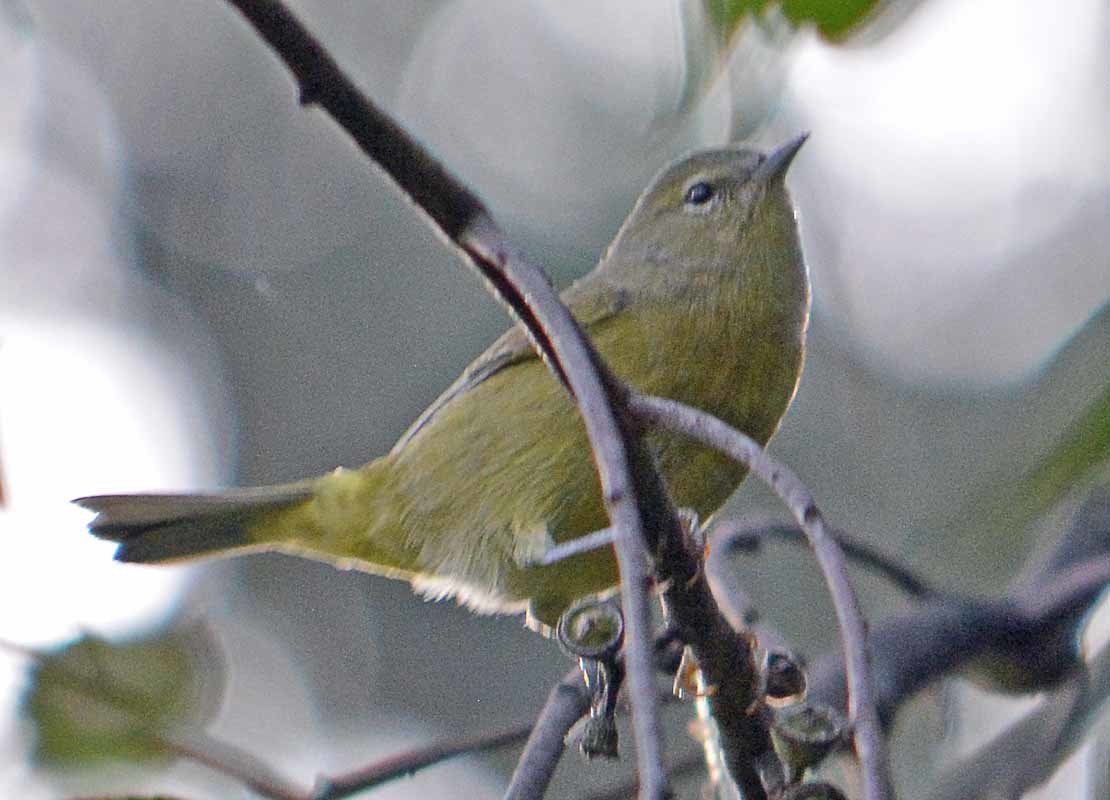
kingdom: Animalia
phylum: Chordata
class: Aves
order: Passeriformes
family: Parulidae
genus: Leiothlypis
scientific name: Leiothlypis celata
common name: Orange-crowned warbler
